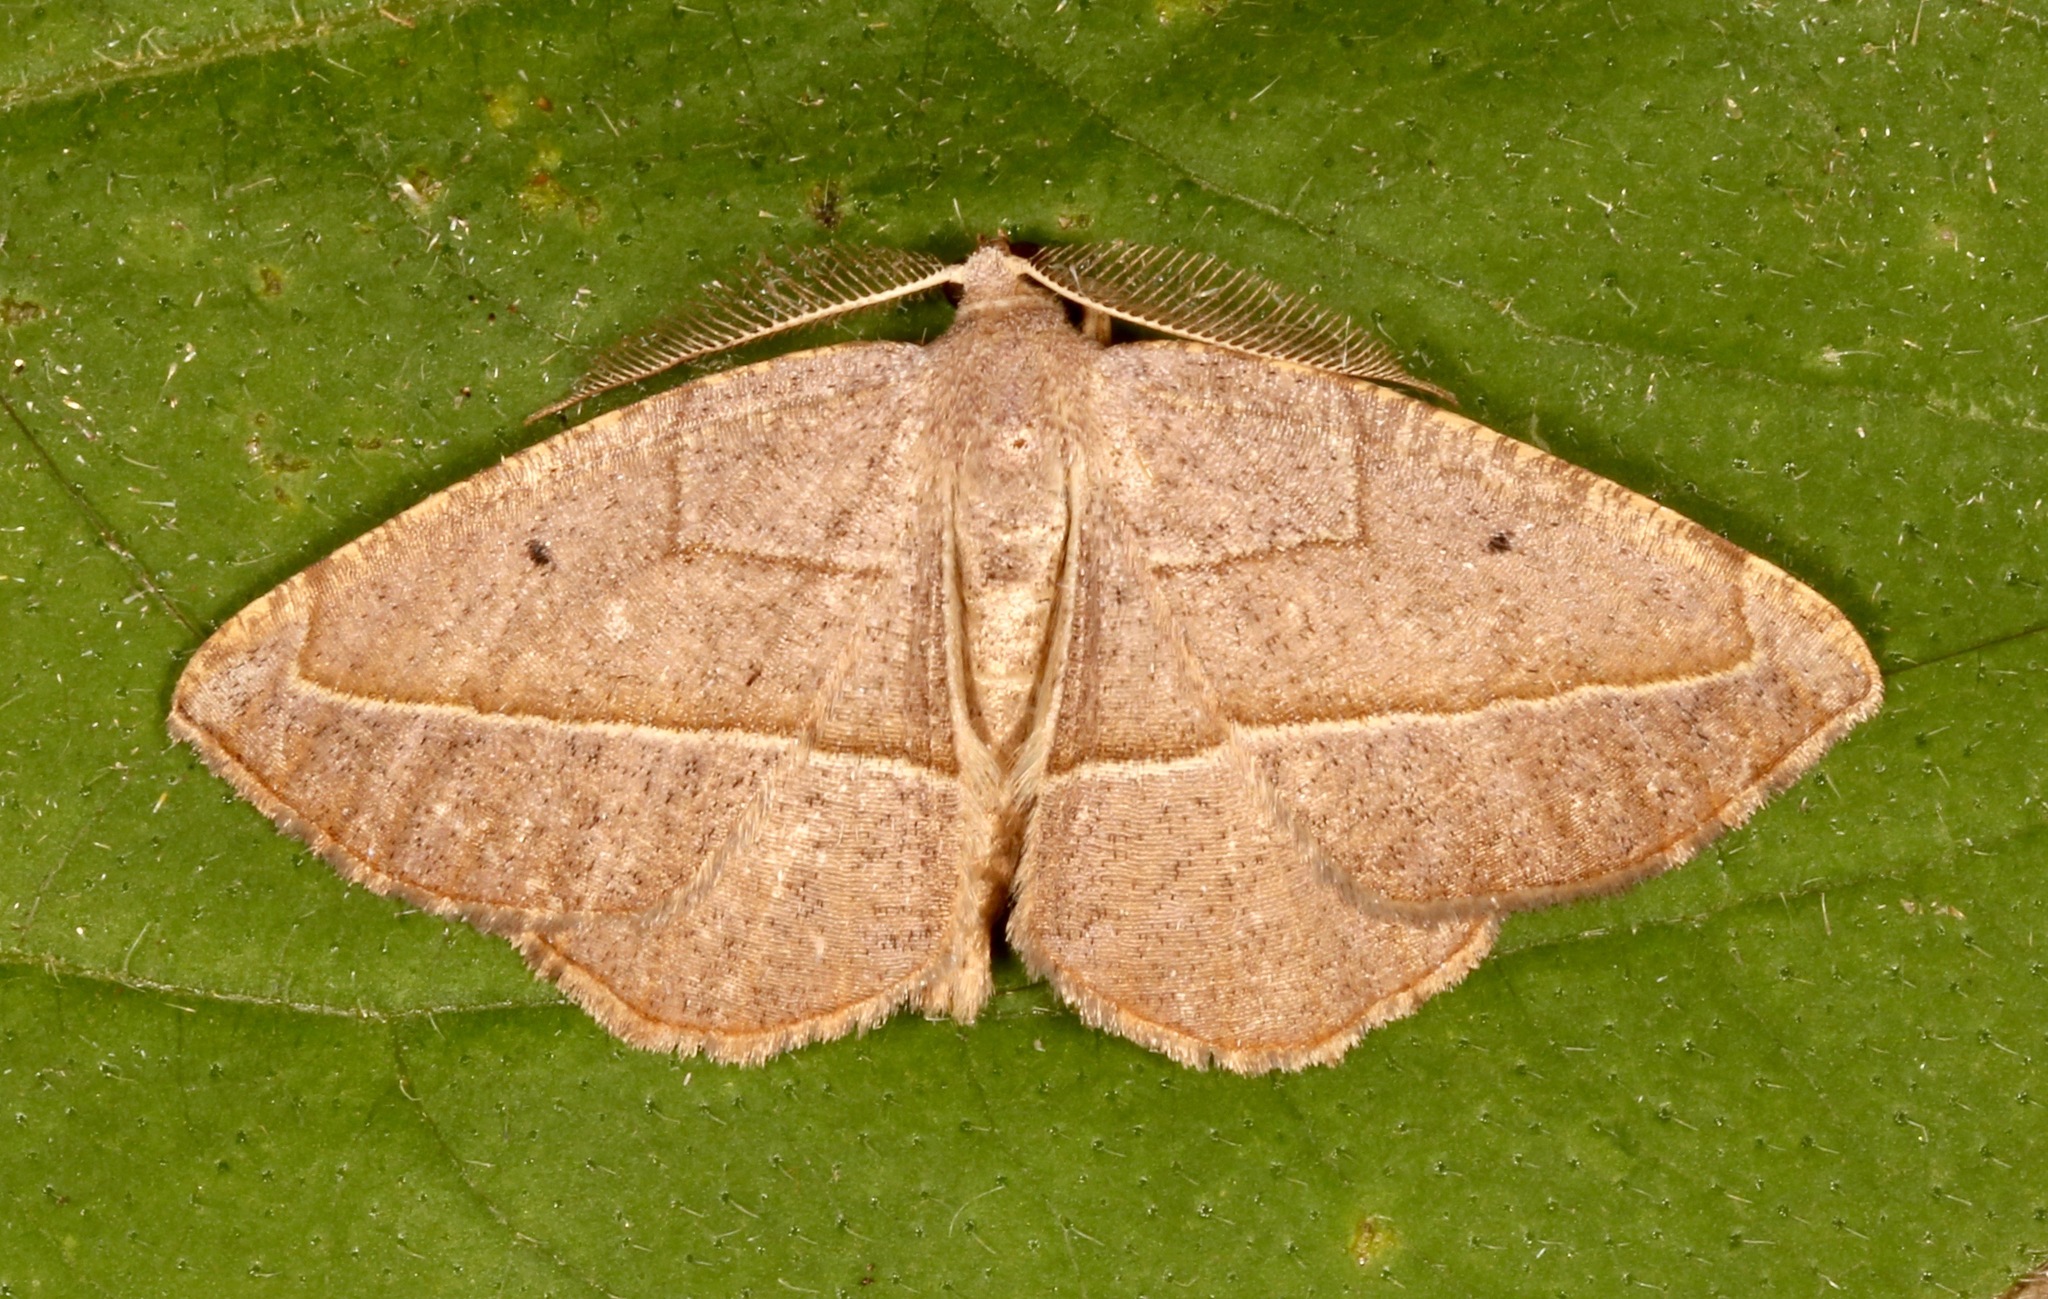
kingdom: Animalia
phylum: Arthropoda
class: Insecta
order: Lepidoptera
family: Geometridae
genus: Eusarca
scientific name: Eusarca geniculata
